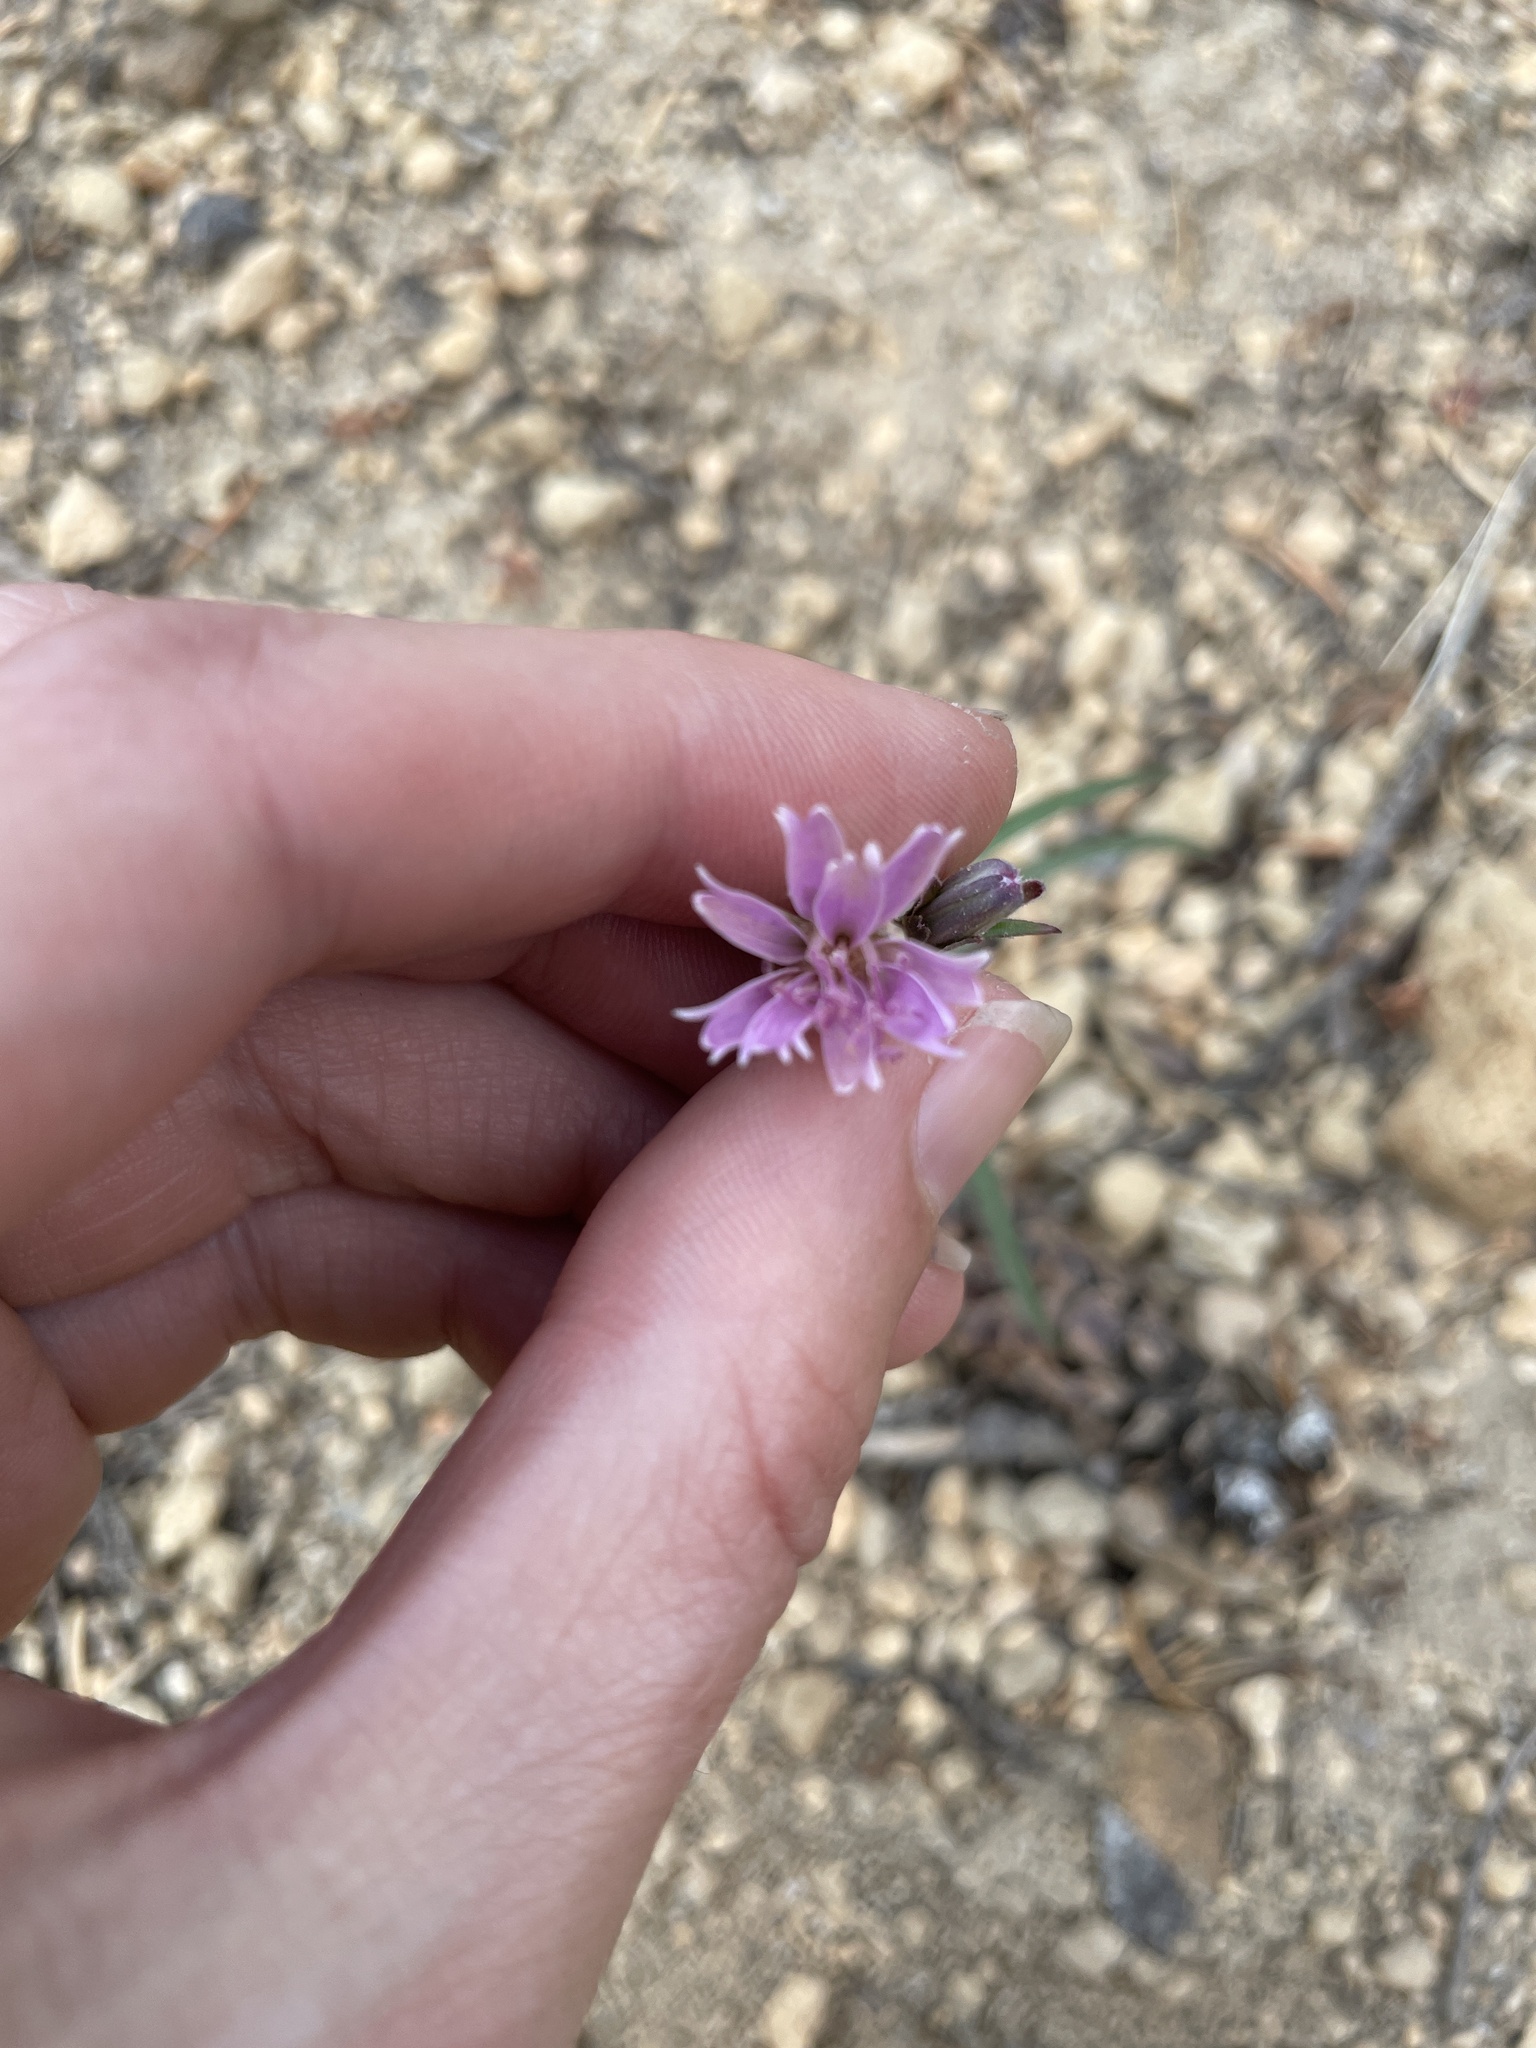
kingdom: Plantae
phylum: Tracheophyta
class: Magnoliopsida
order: Asterales
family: Asteraceae
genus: Stephanomeria
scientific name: Stephanomeria lactucina
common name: Large-flowered wirelettuce
